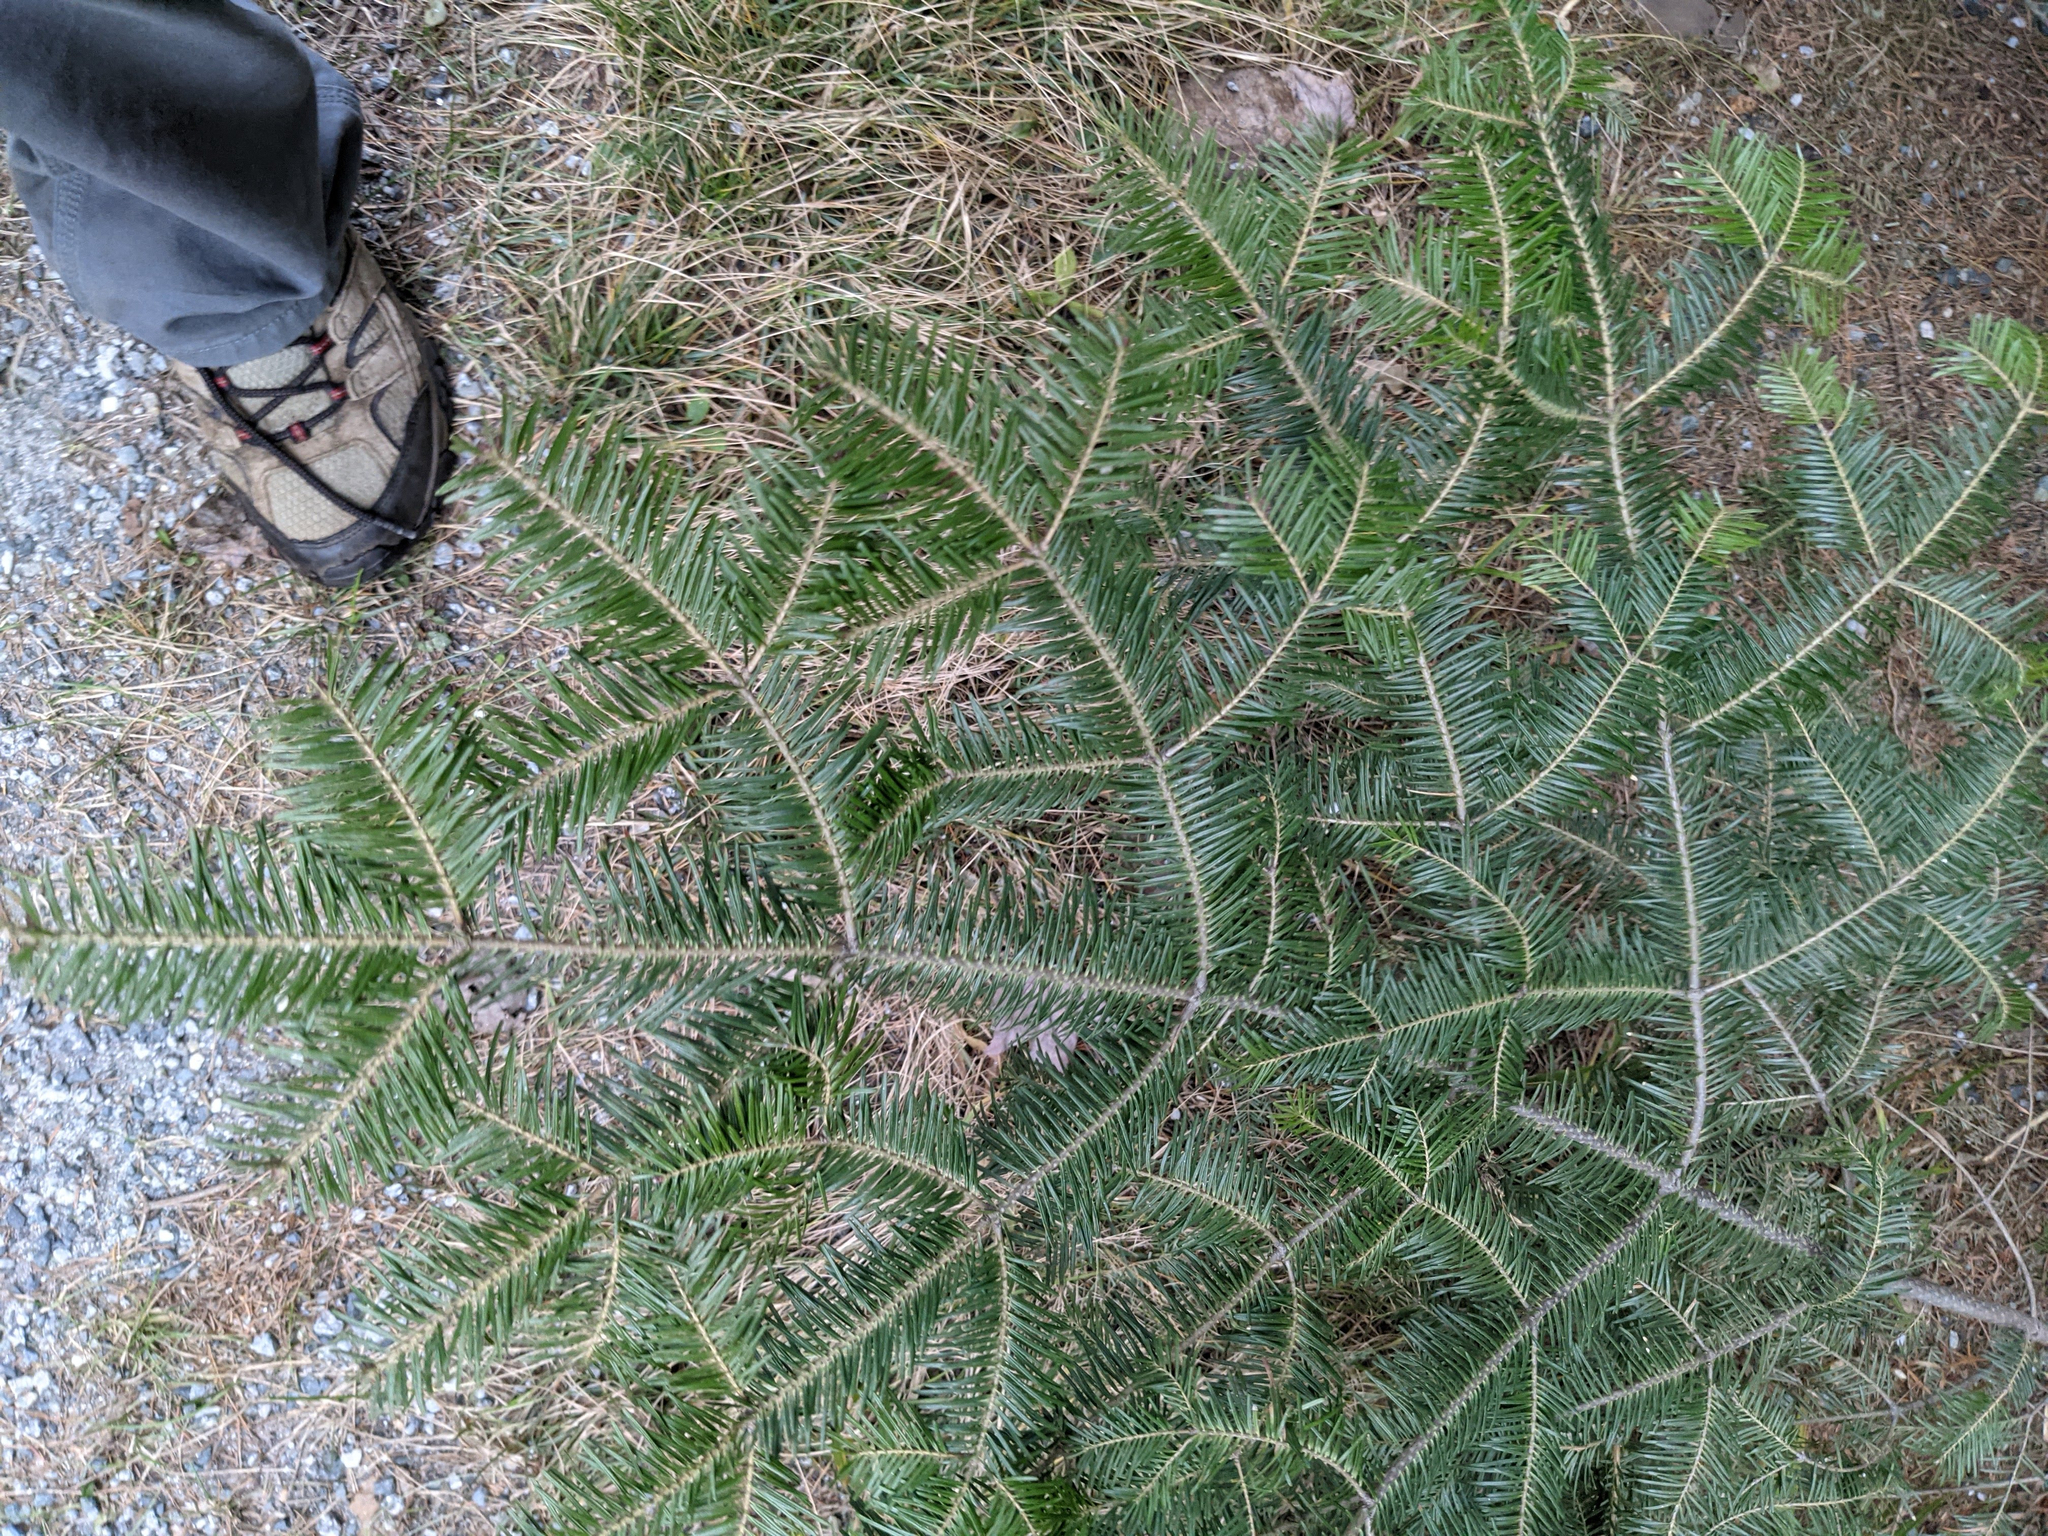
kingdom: Plantae
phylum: Tracheophyta
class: Pinopsida
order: Pinales
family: Pinaceae
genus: Abies
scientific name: Abies balsamea
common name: Balsam fir
